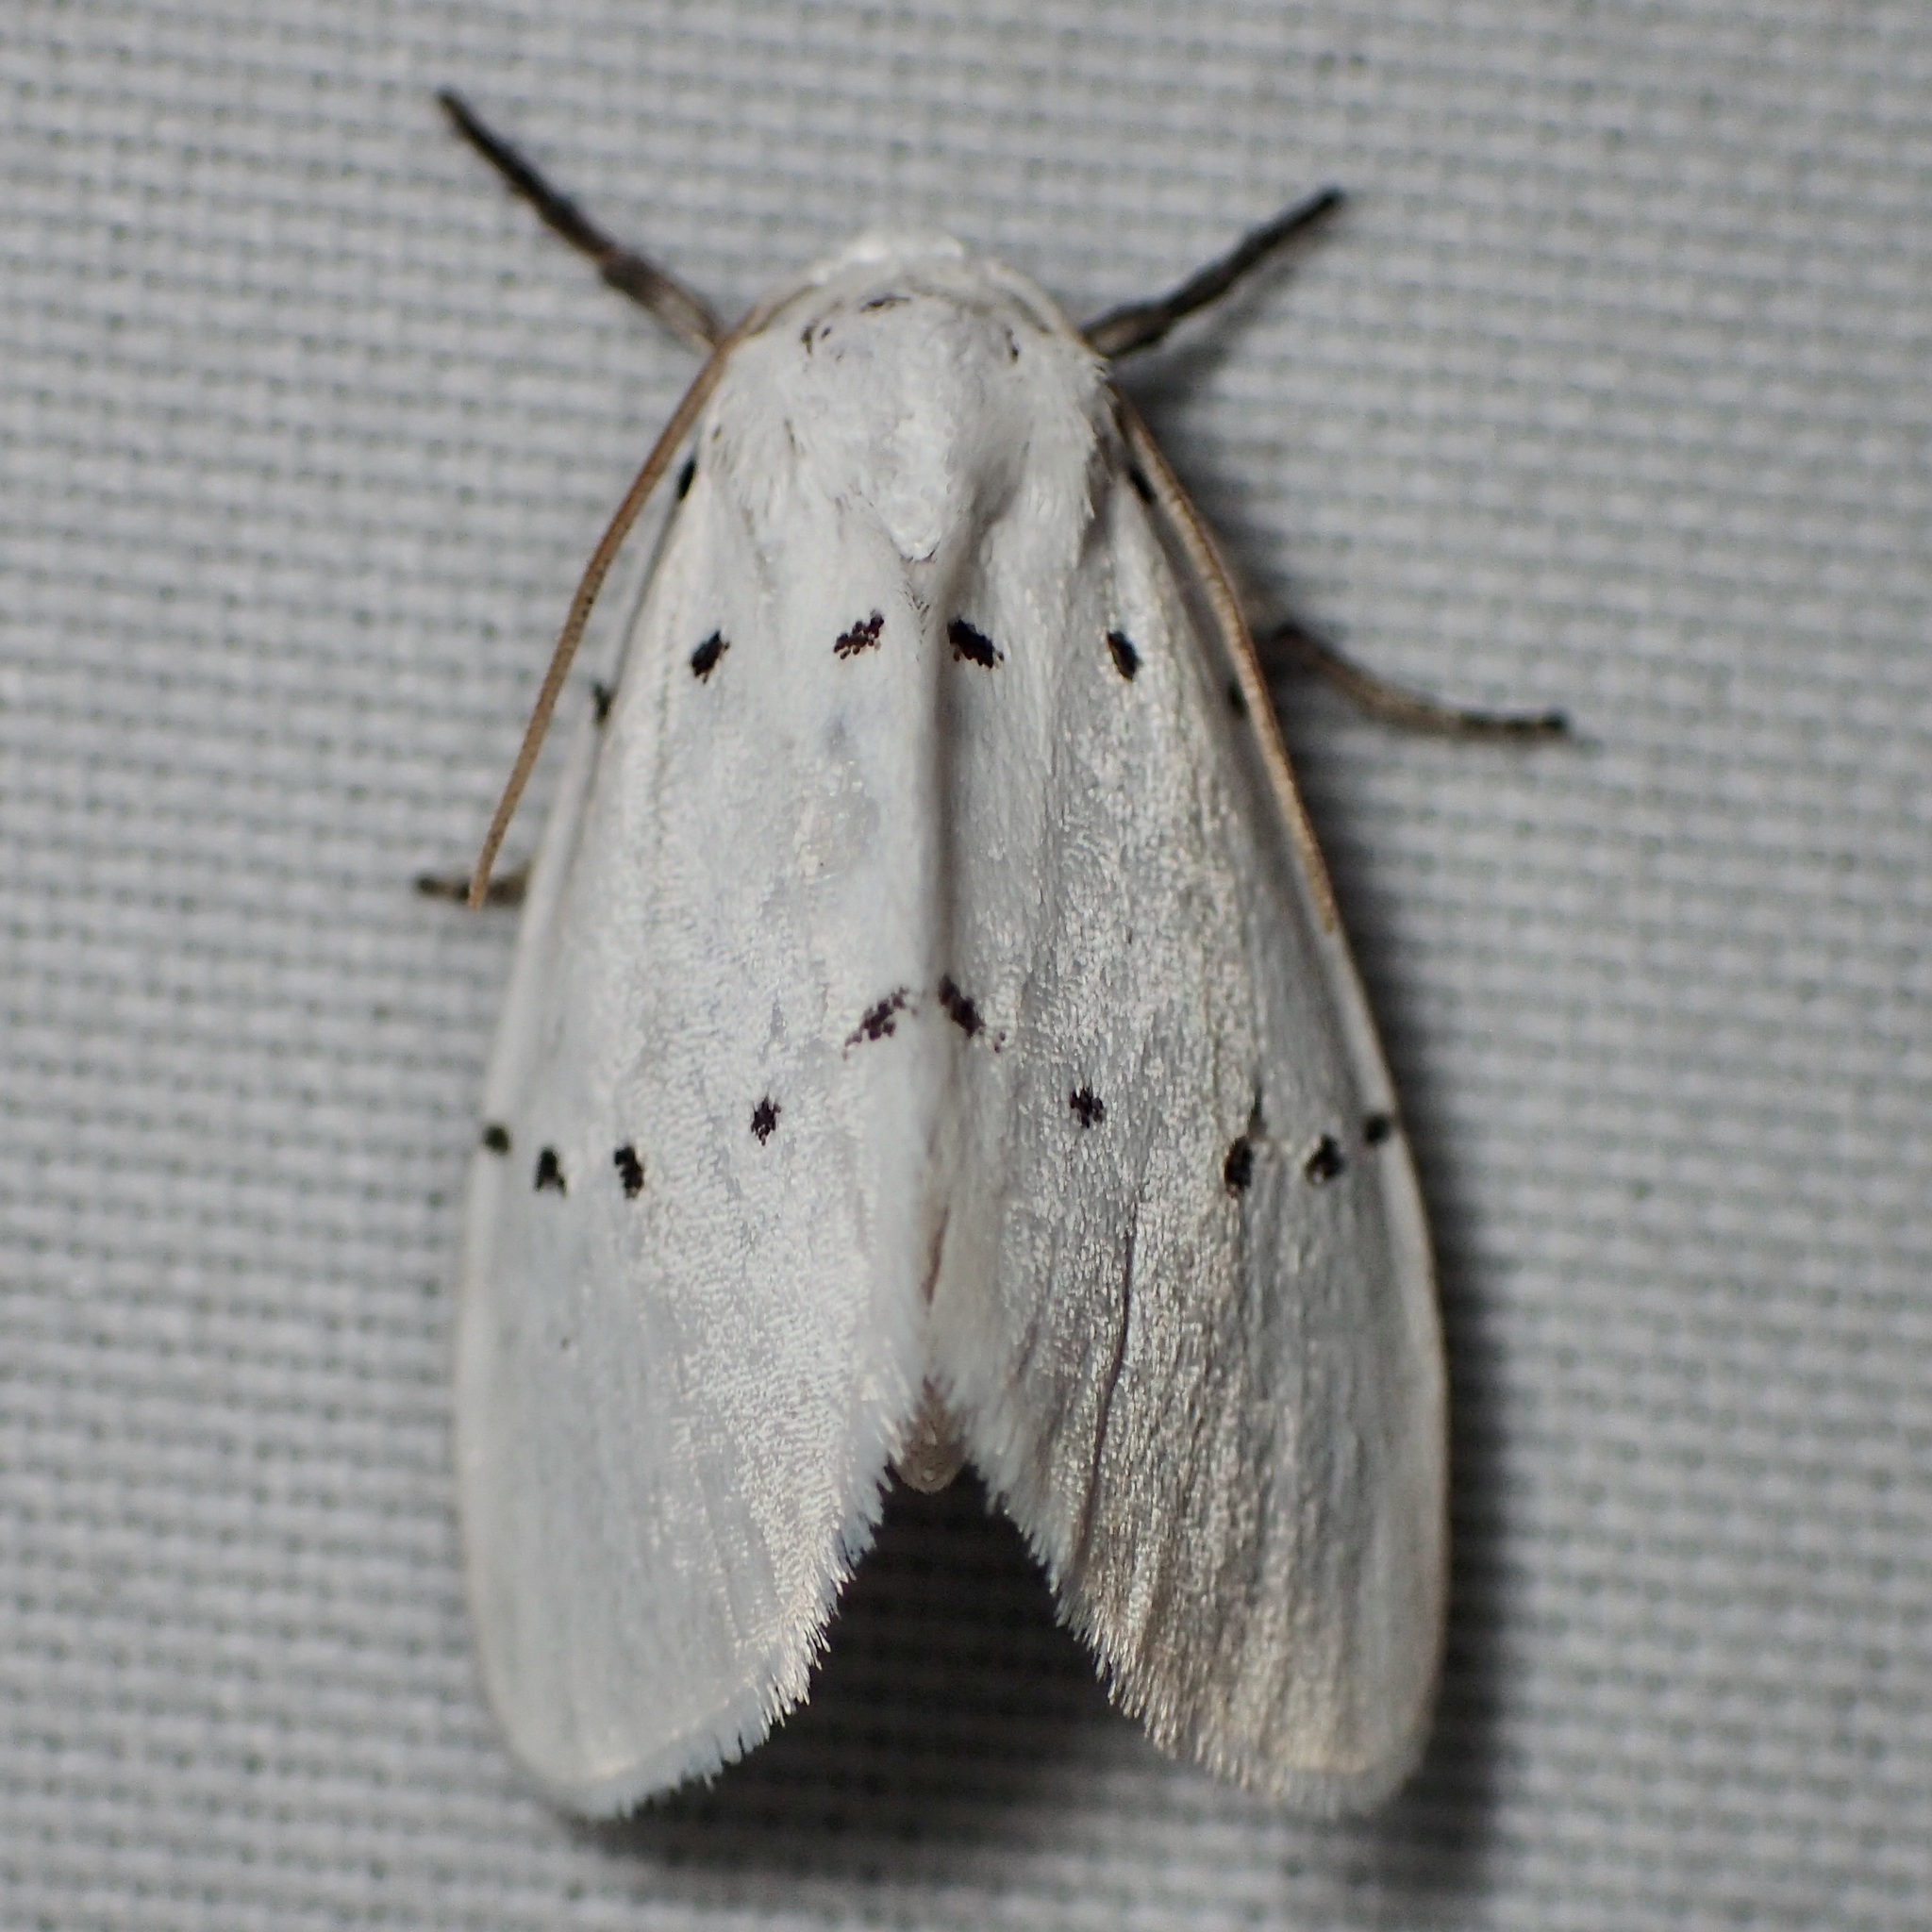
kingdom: Animalia
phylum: Arthropoda
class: Insecta
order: Lepidoptera
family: Noctuidae
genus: Homolagoa
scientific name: Homolagoa grotelliformis
